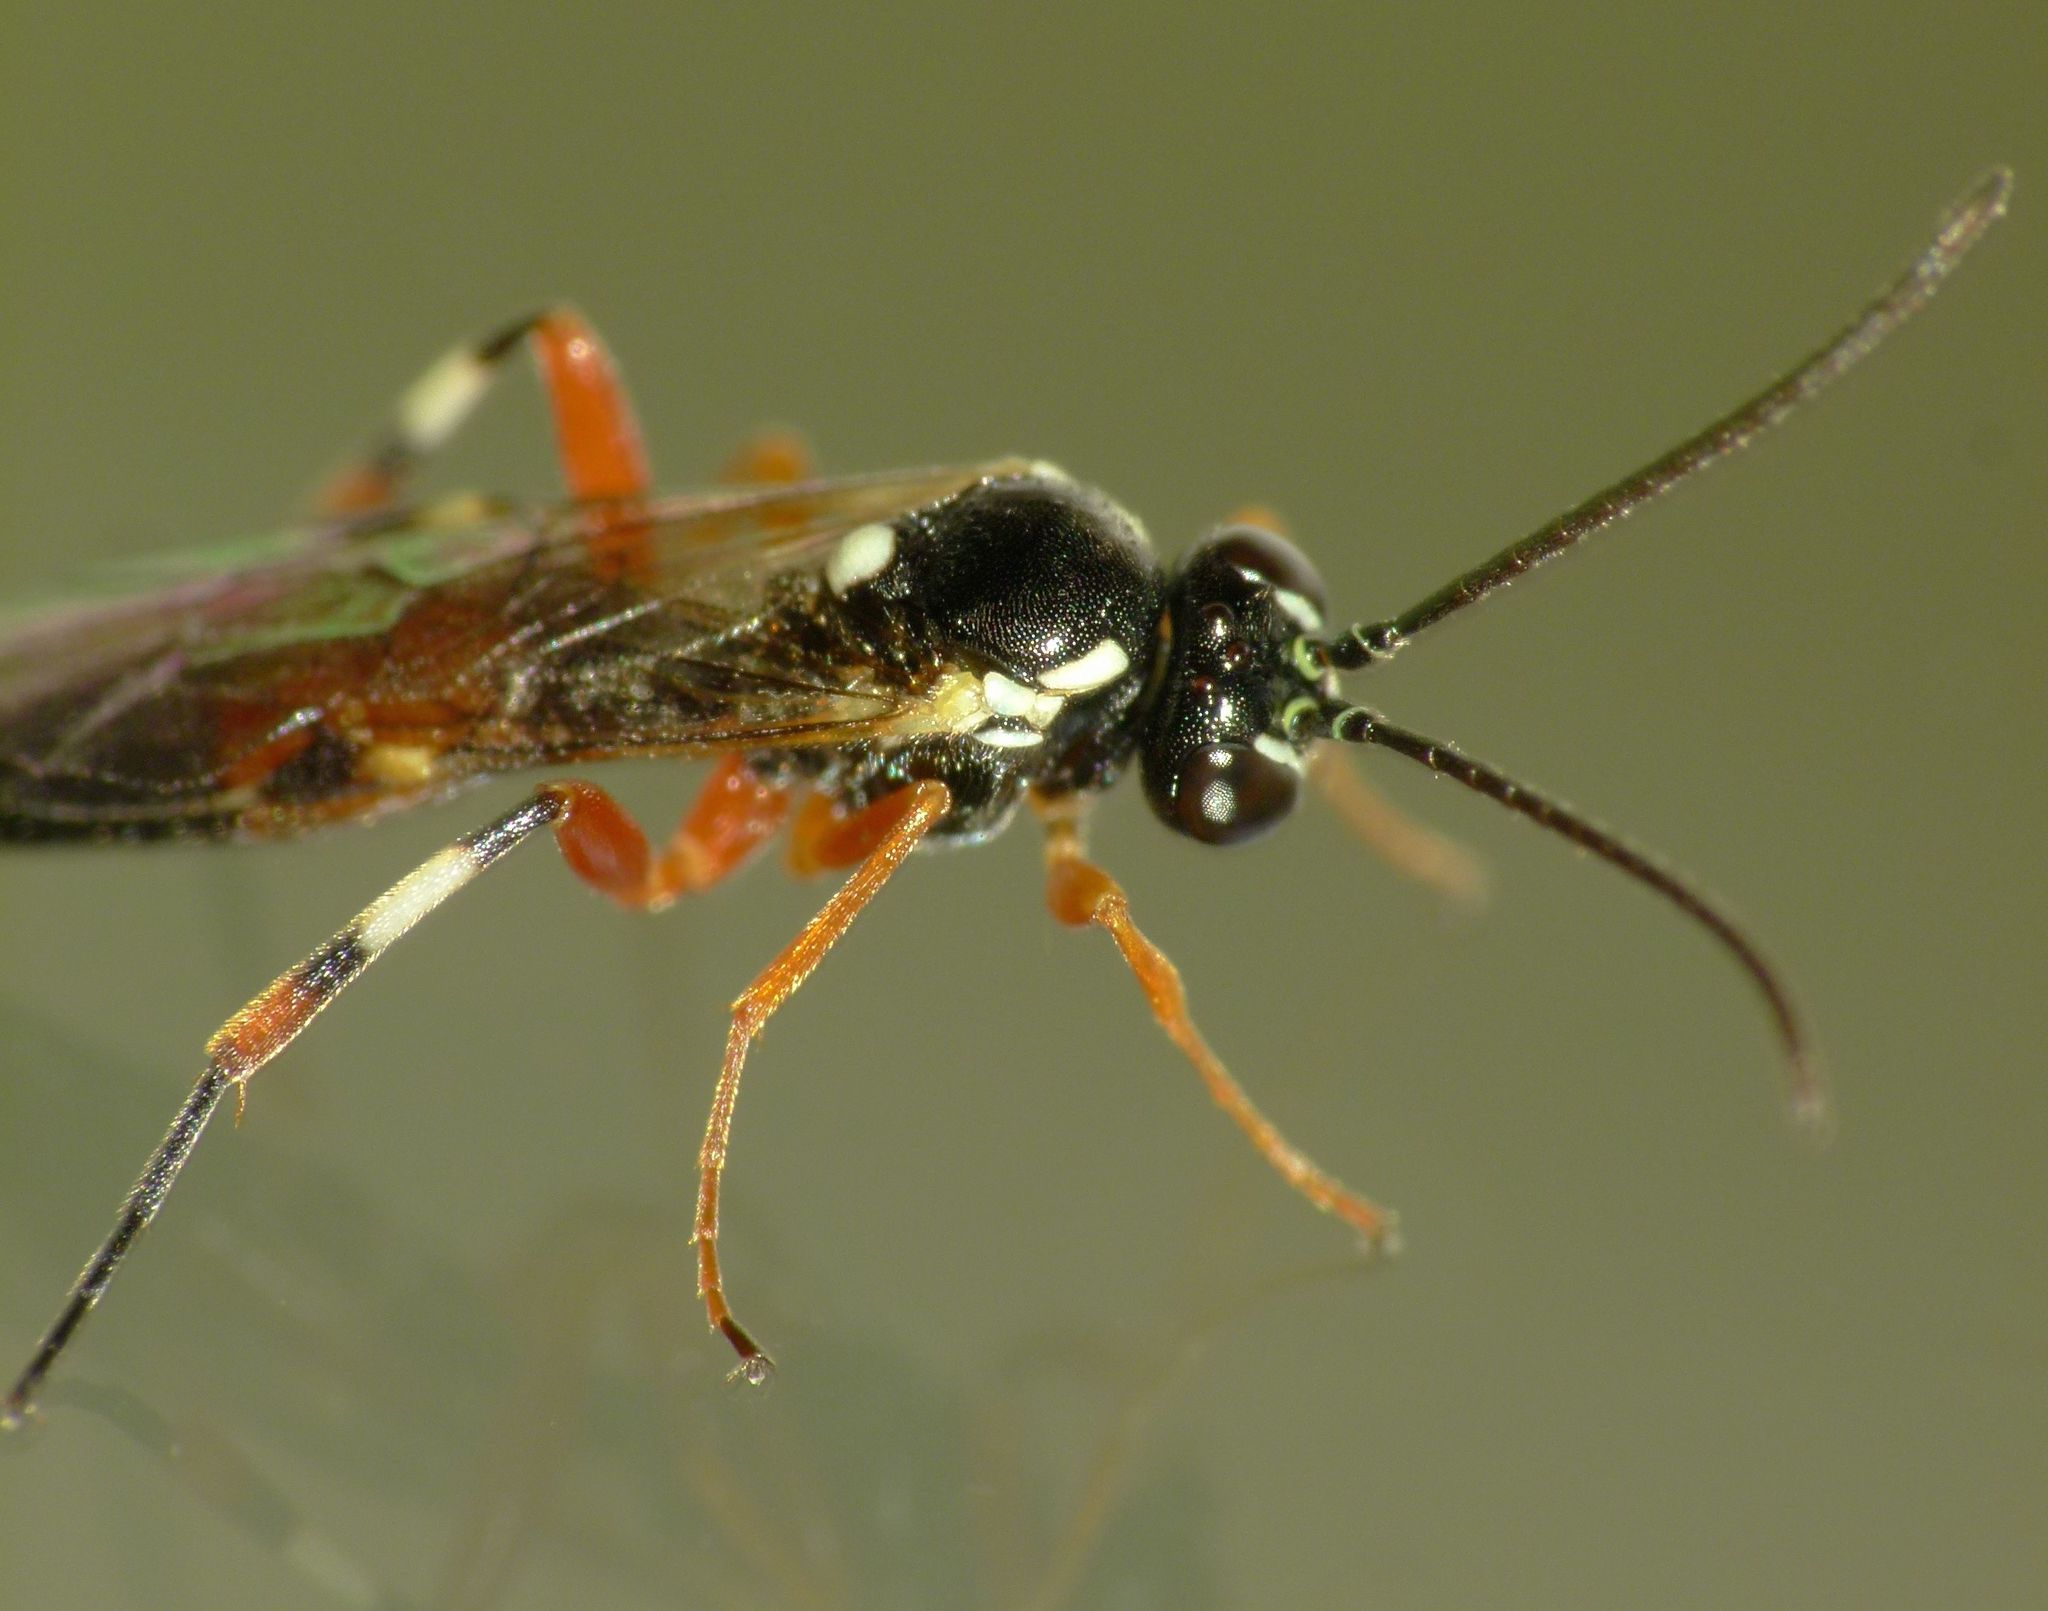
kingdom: Animalia
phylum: Arthropoda
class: Insecta
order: Hymenoptera
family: Ichneumonidae
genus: Diplazon
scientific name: Diplazon laetatorius
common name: Parasitoid wasp
